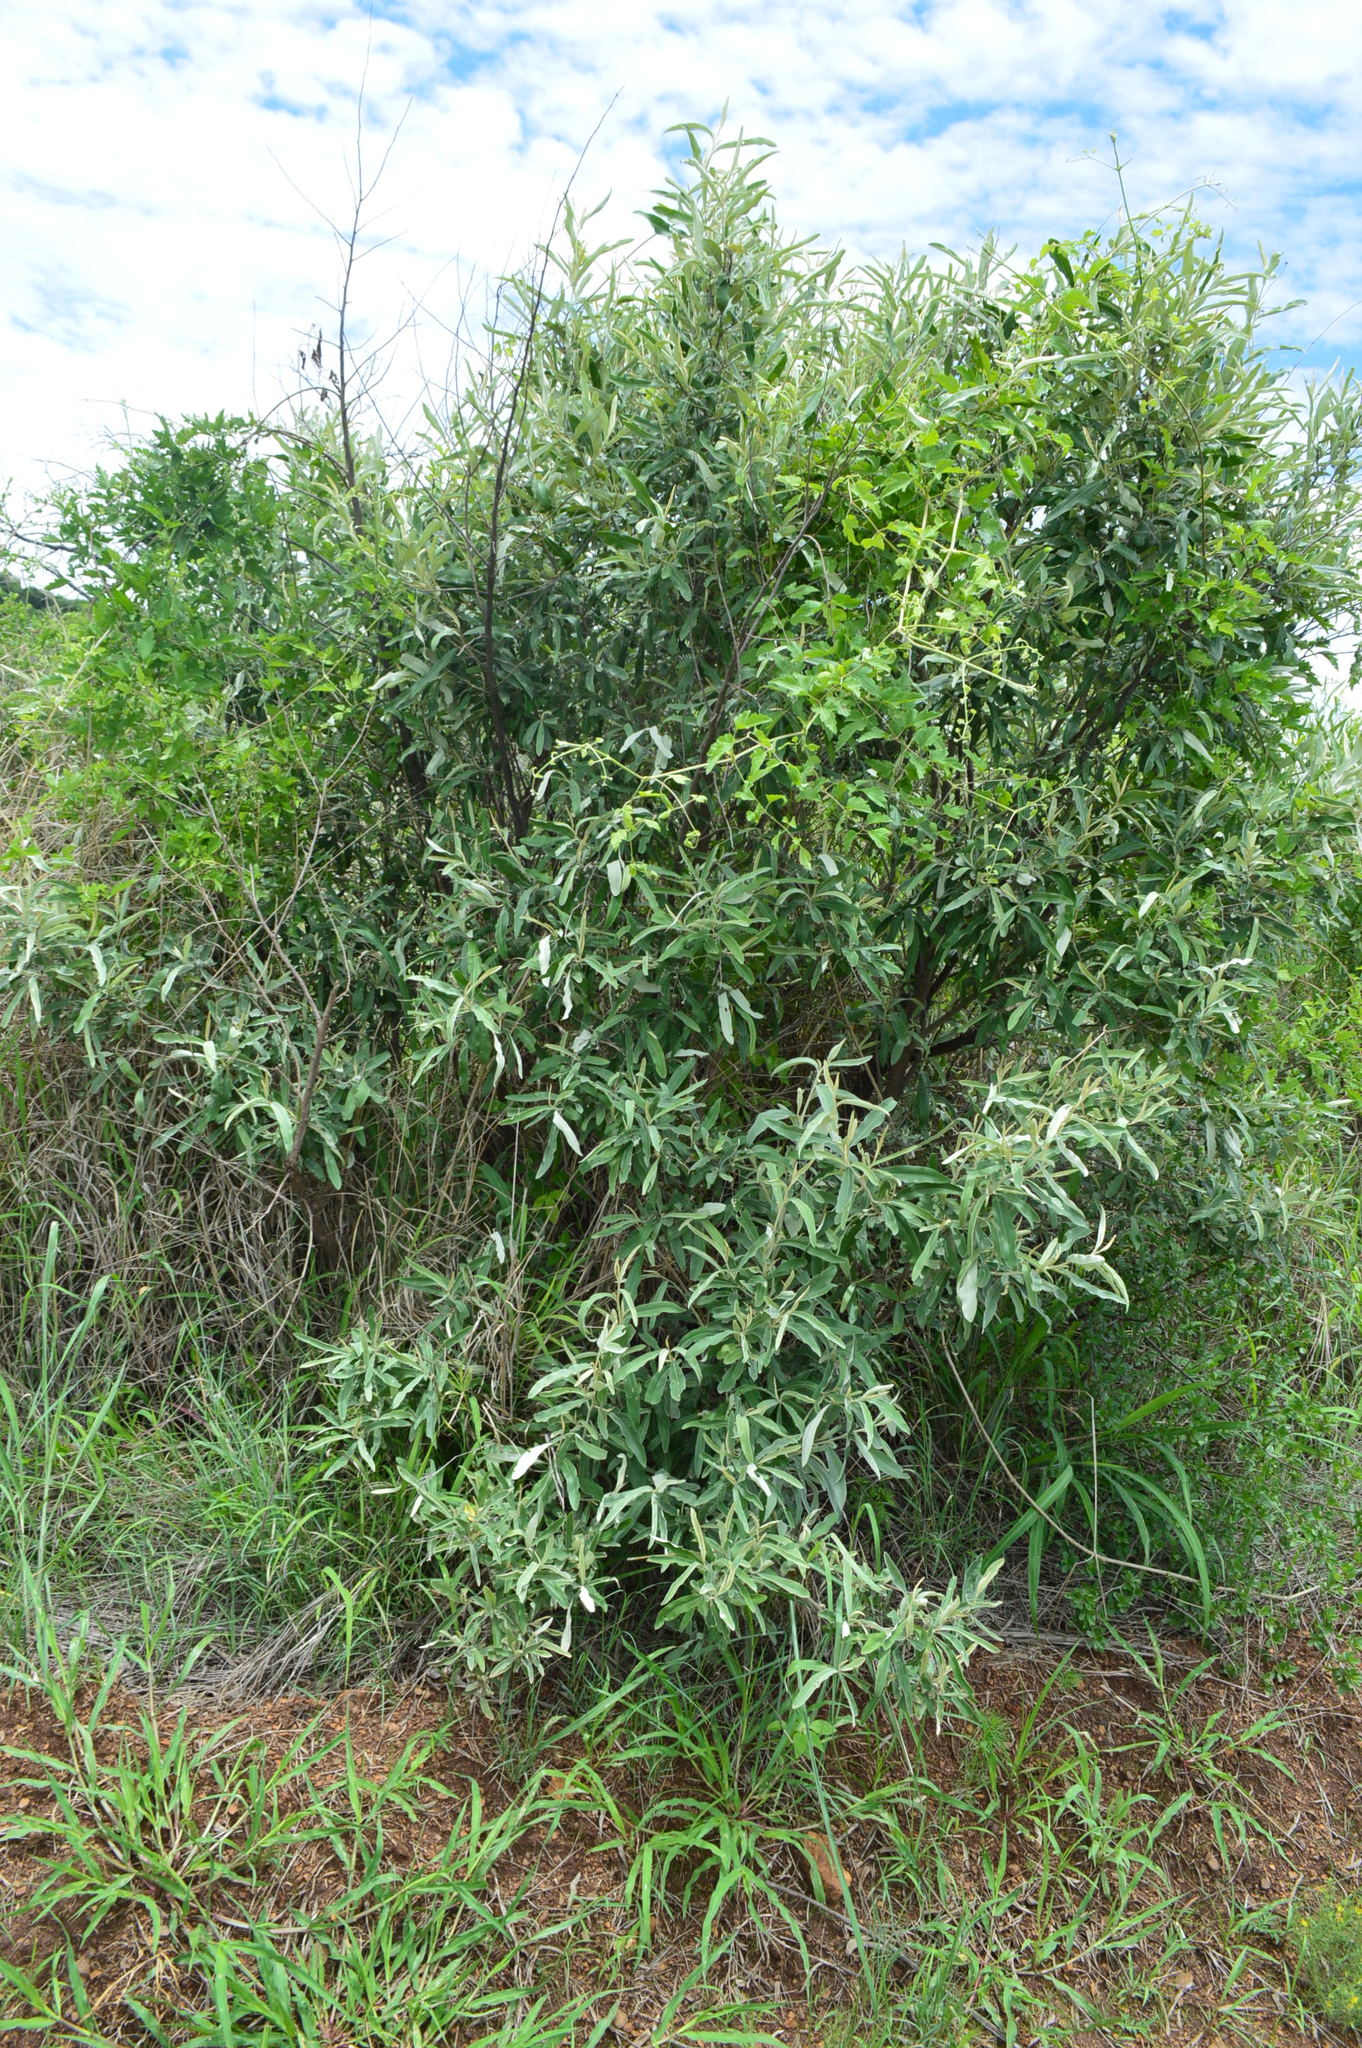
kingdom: Plantae
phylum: Tracheophyta
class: Magnoliopsida
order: Asterales
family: Asteraceae
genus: Tarchonanthus
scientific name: Tarchonanthus camphoratus
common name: Camphorwood
